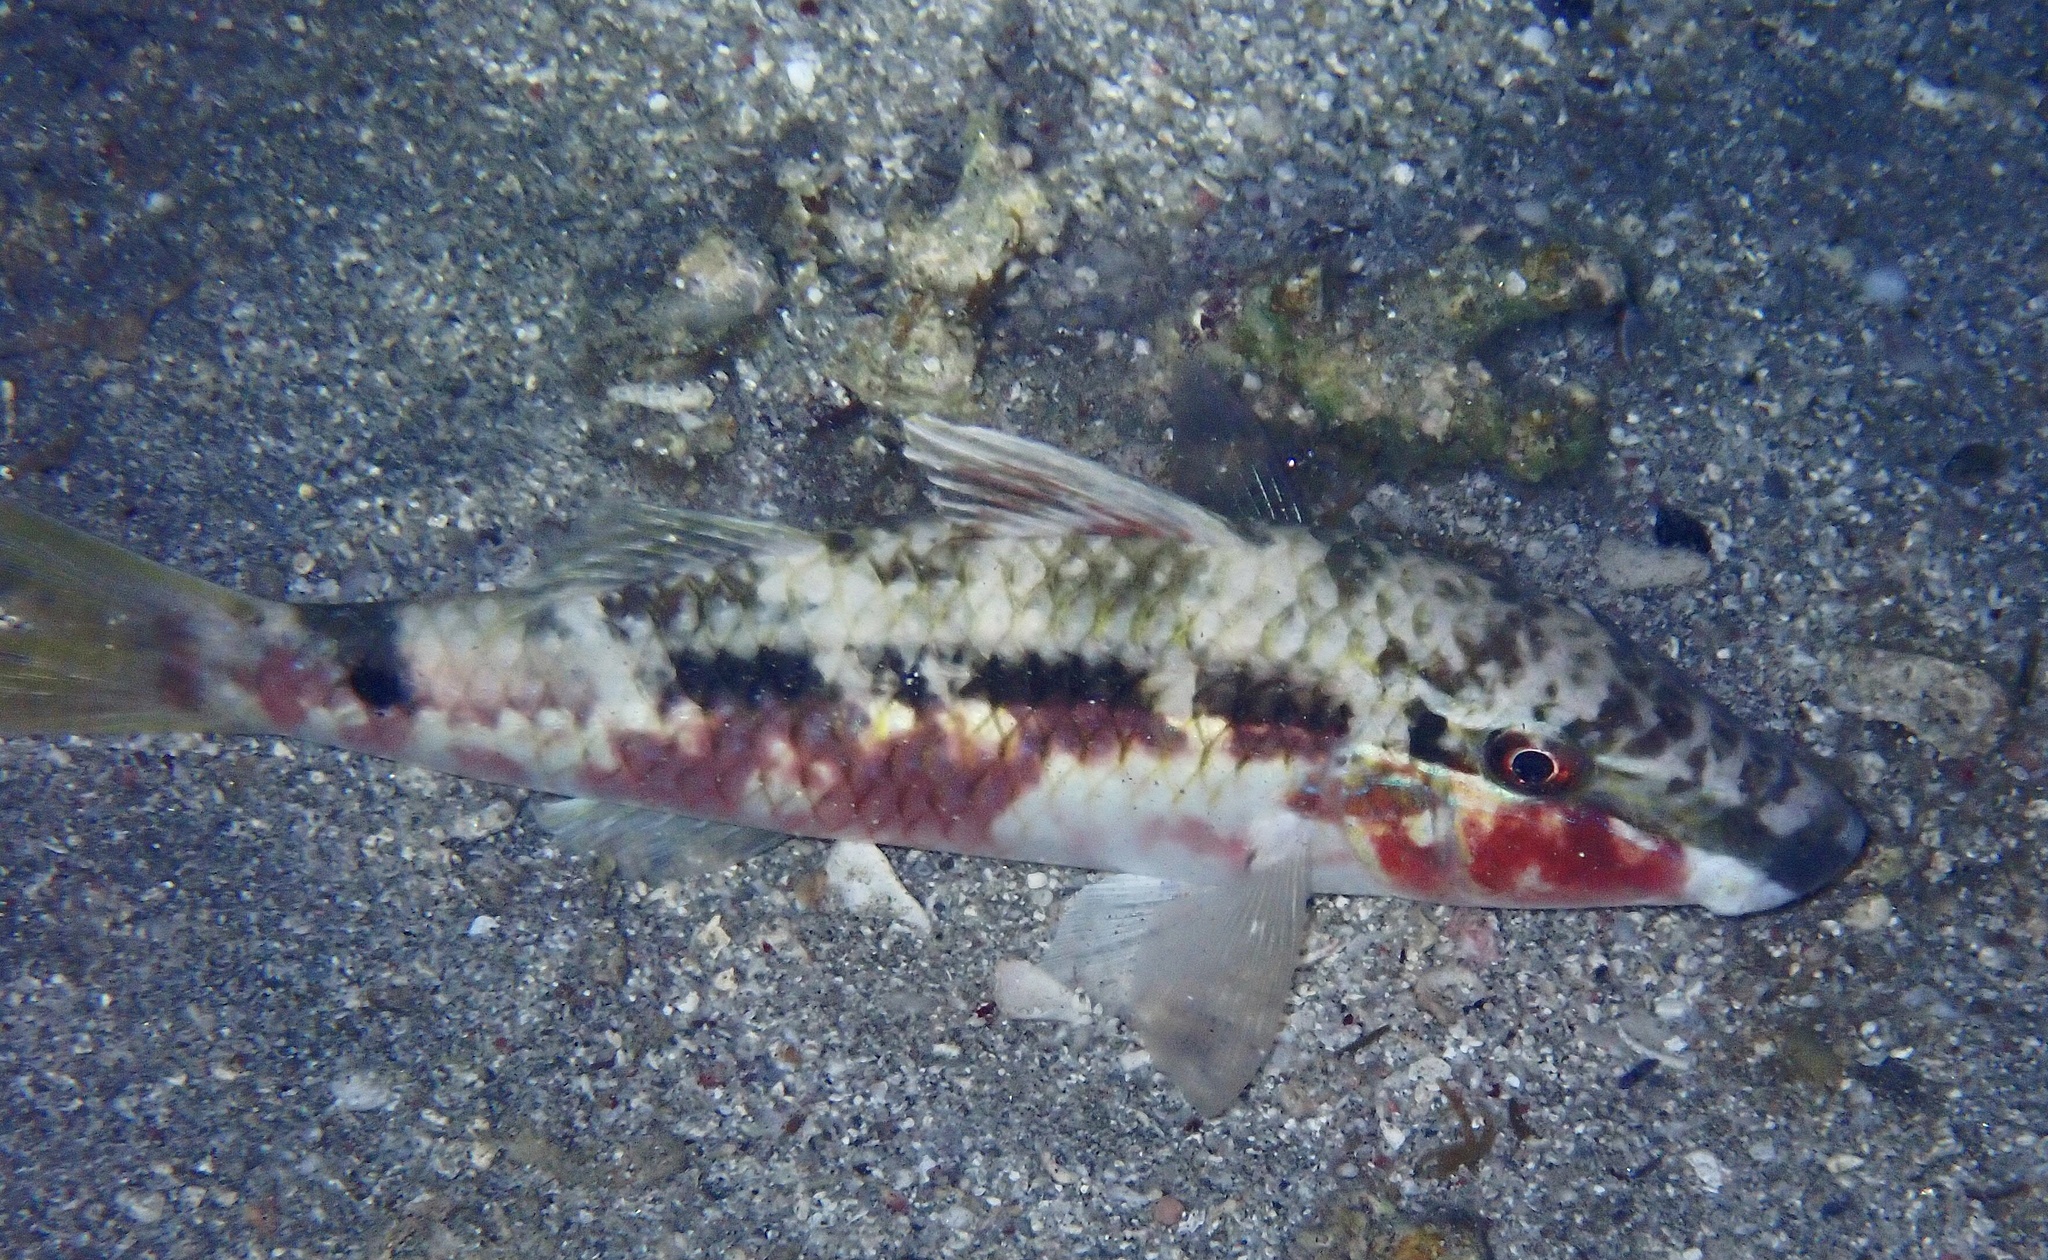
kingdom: Animalia
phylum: Chordata
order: Perciformes
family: Mullidae
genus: Parupeneus
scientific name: Parupeneus forsskali
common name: Red sea goatfish
